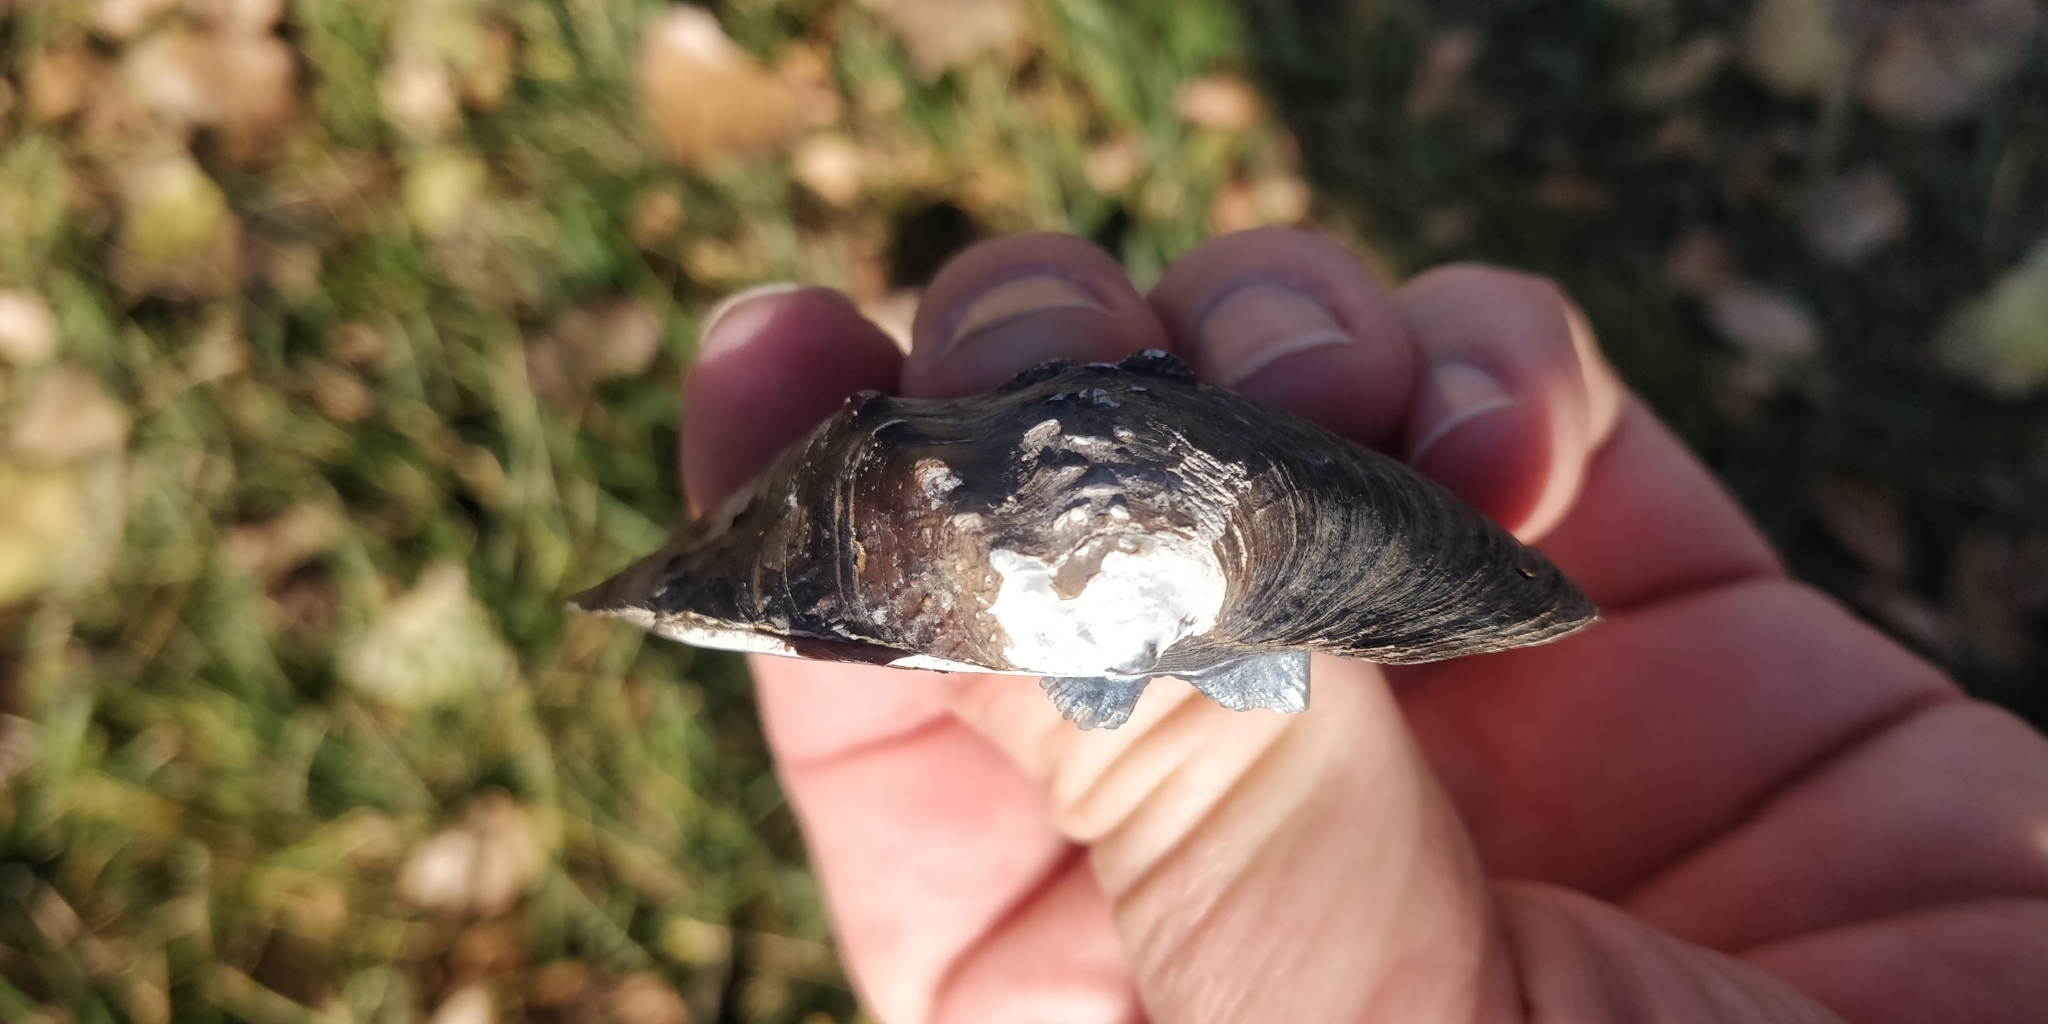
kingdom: Animalia
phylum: Mollusca
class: Bivalvia
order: Unionida
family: Unionidae
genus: Quadrula
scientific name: Quadrula quadrula
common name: Mapleleaf
